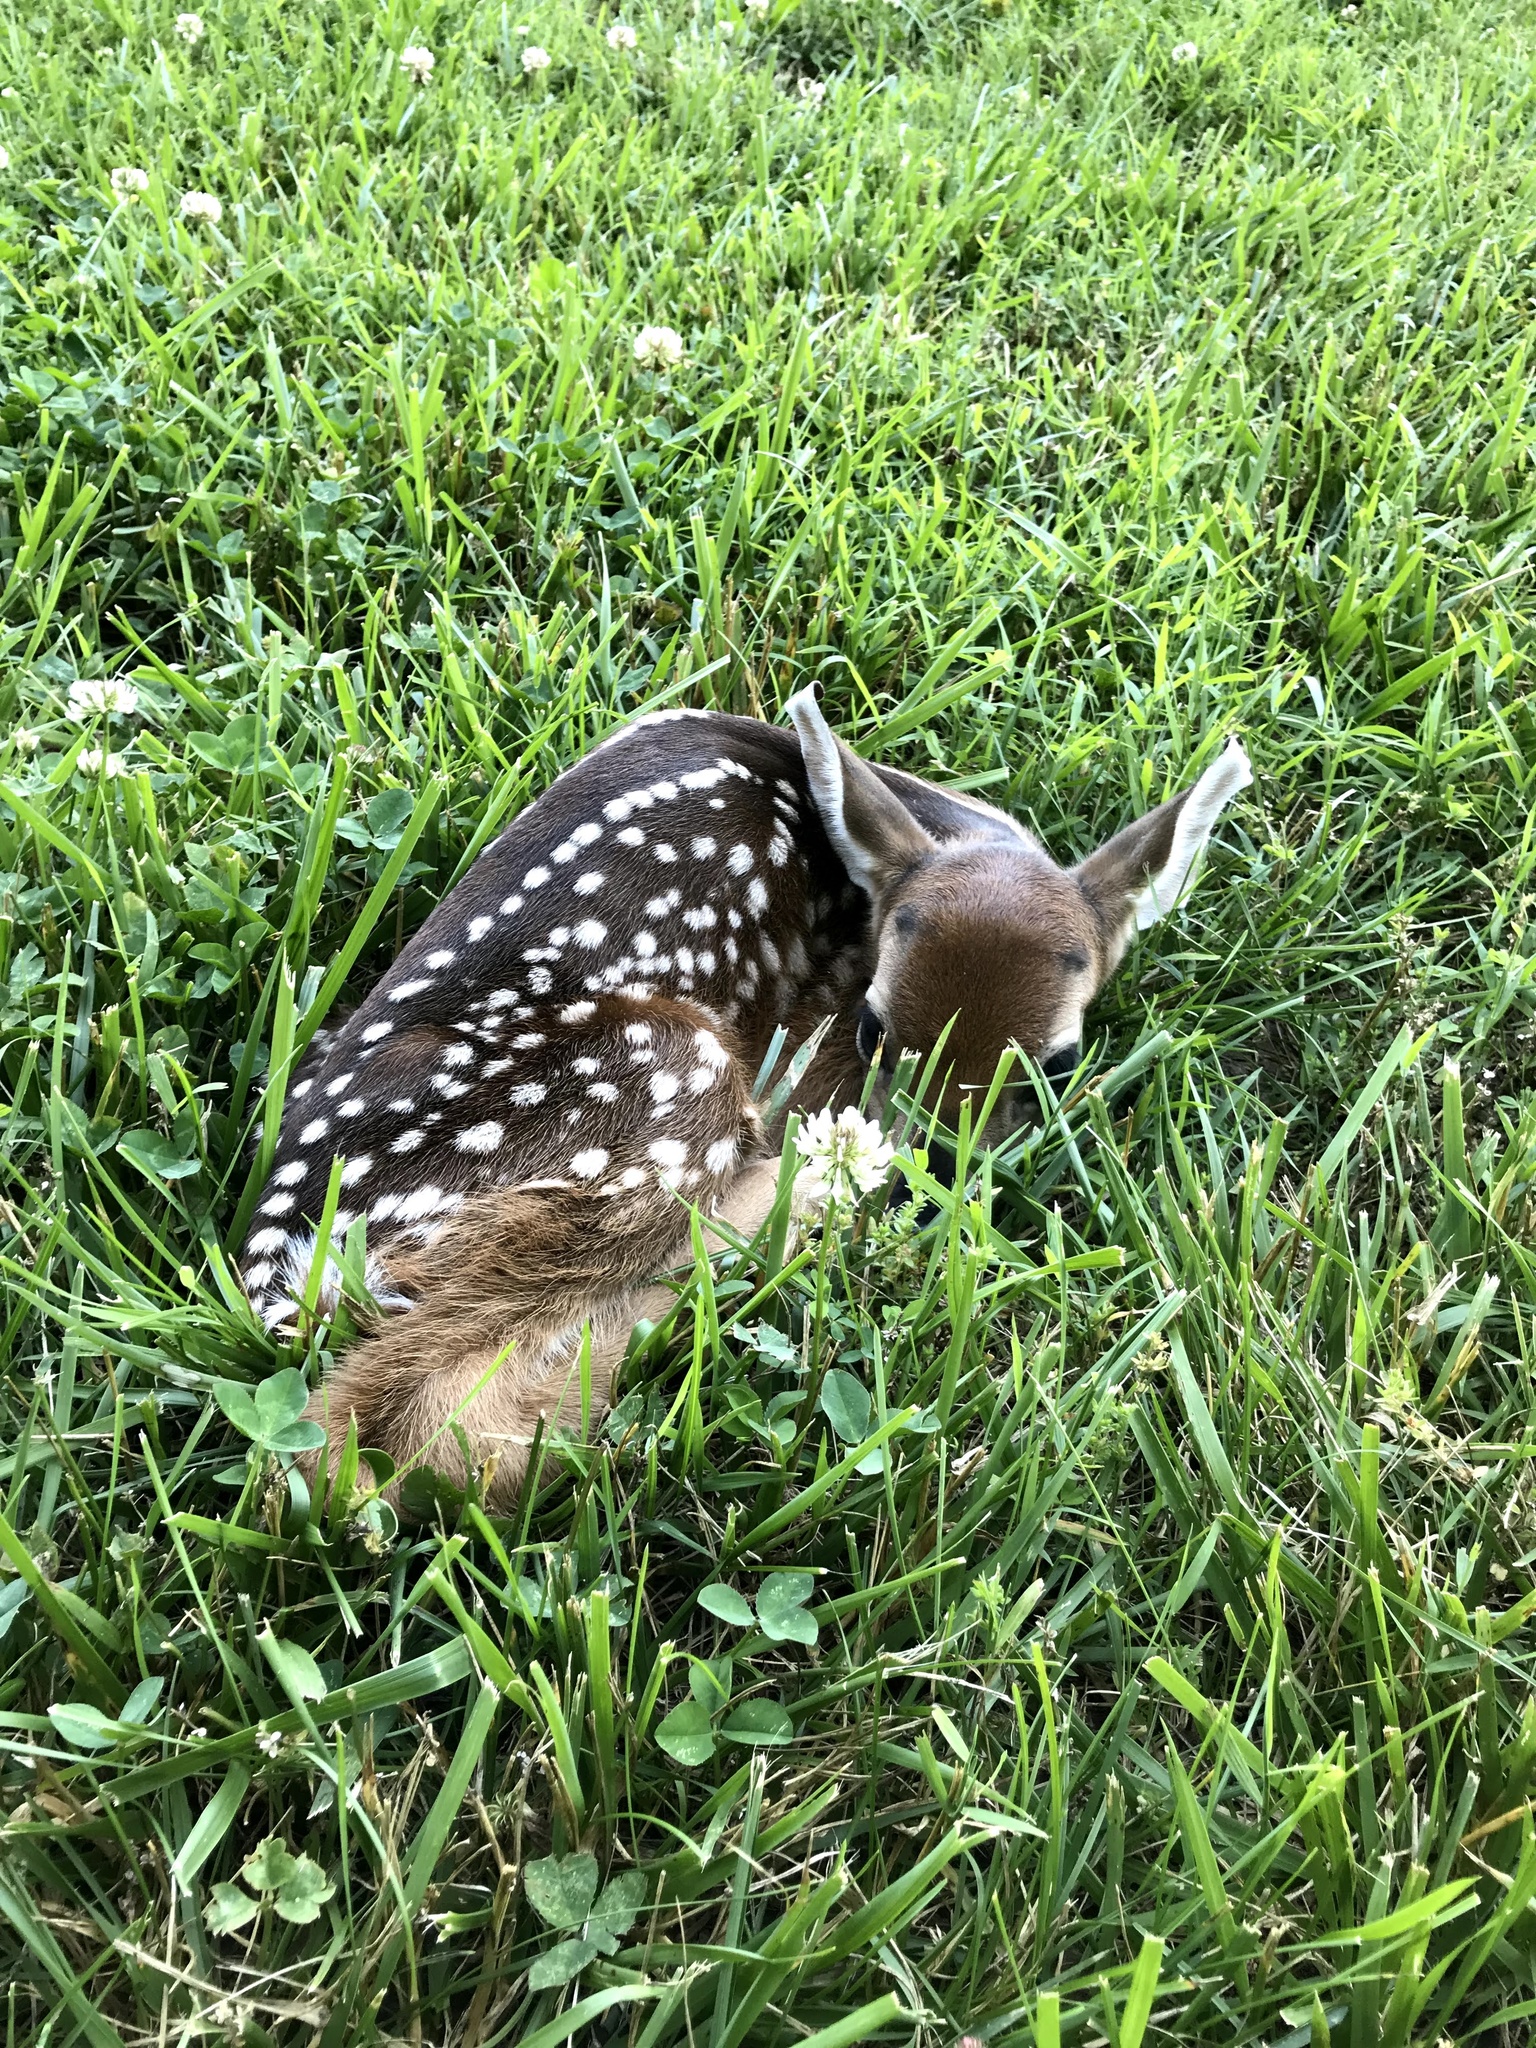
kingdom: Animalia
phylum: Chordata
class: Mammalia
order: Artiodactyla
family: Cervidae
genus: Odocoileus
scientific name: Odocoileus virginianus
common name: White-tailed deer
